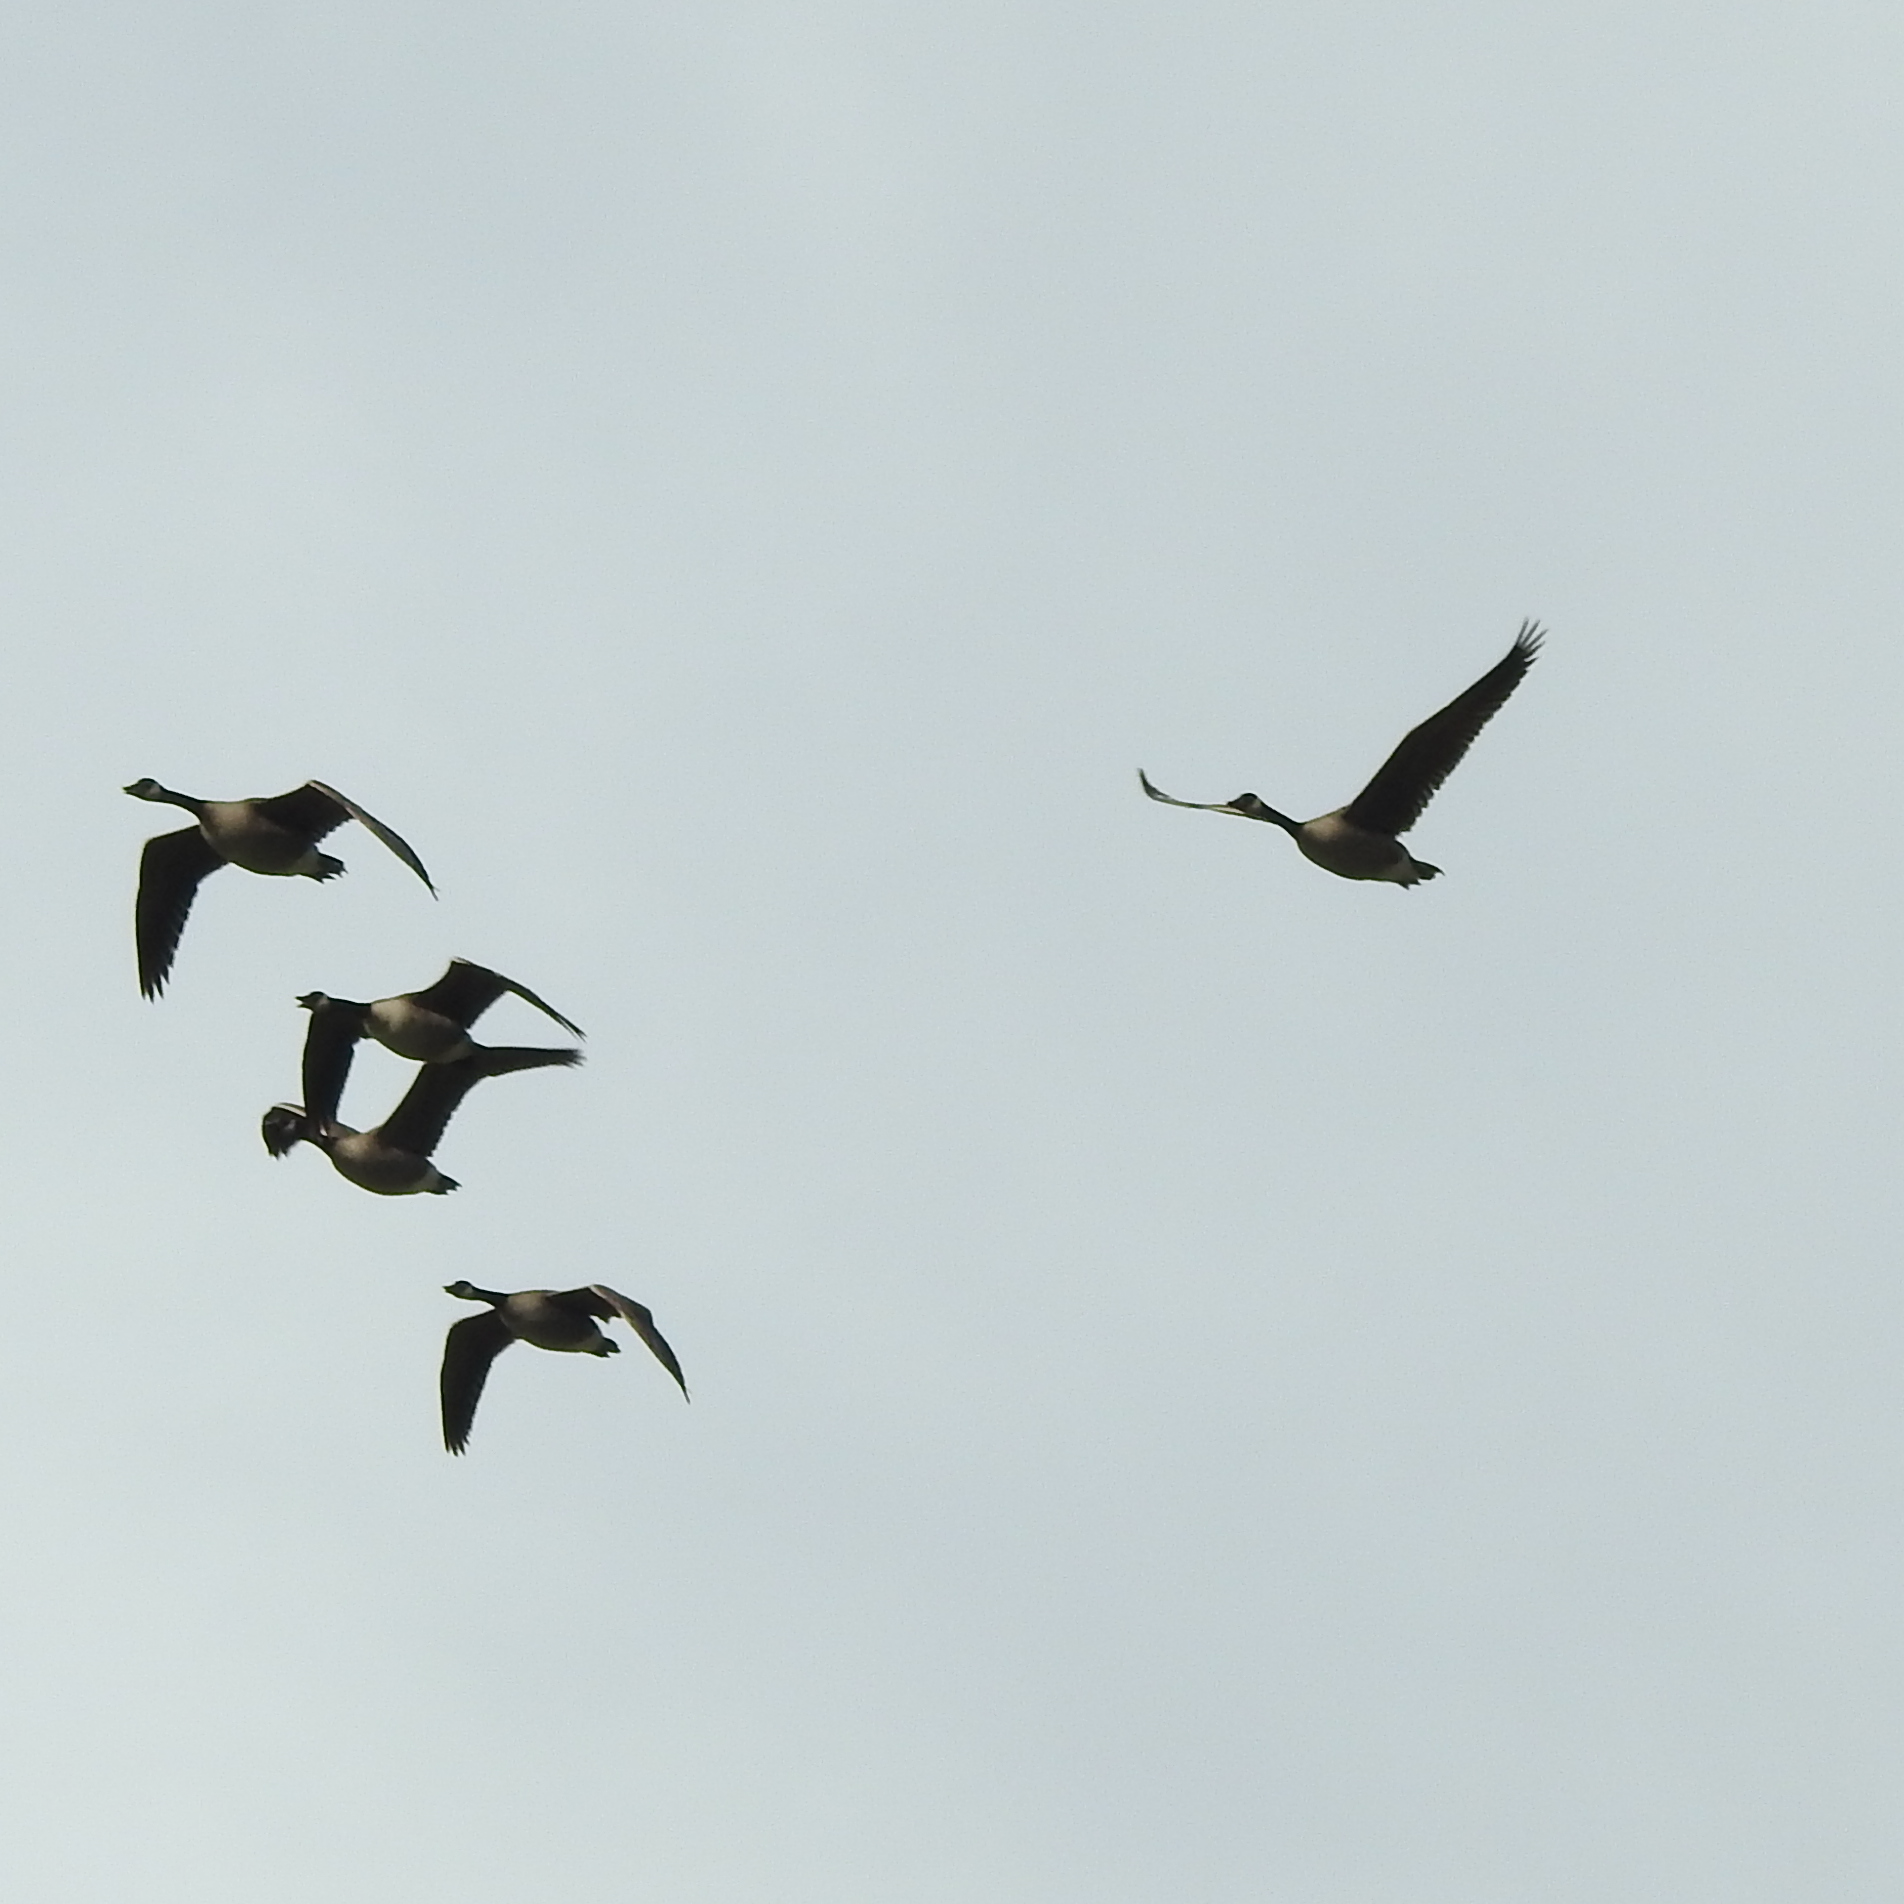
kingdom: Animalia
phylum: Chordata
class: Aves
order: Anseriformes
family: Anatidae
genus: Branta
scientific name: Branta canadensis
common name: Canada goose
